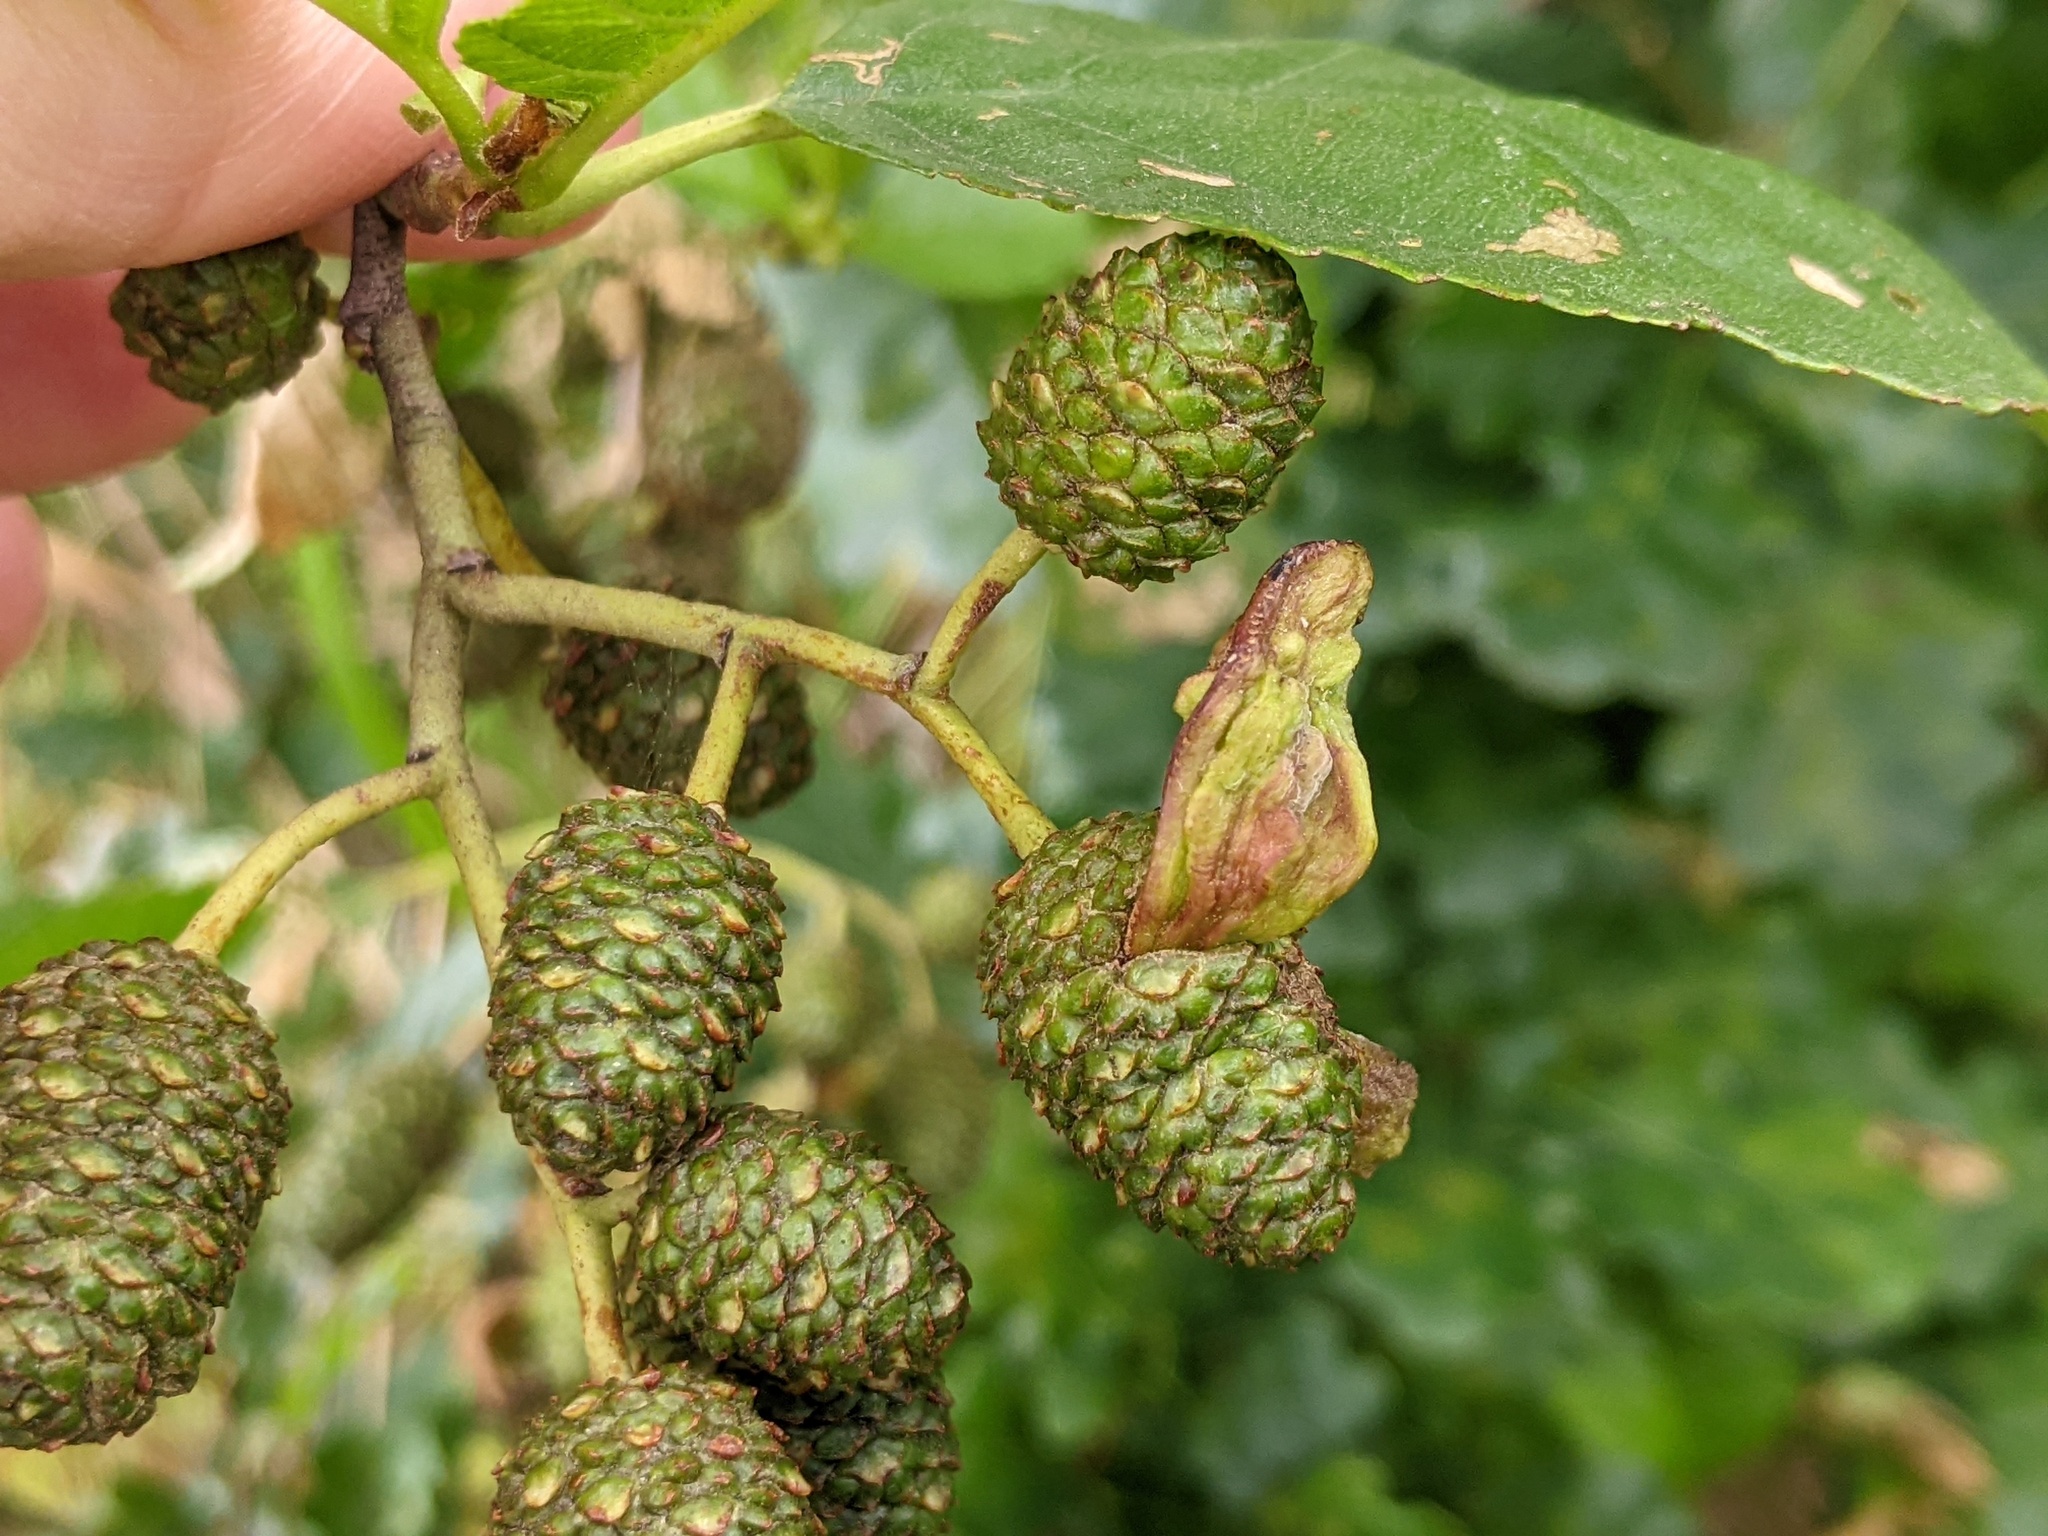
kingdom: Fungi
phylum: Ascomycota
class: Taphrinomycetes
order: Taphrinales
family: Taphrinaceae
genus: Taphrina
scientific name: Taphrina alni
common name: Alder tongue
